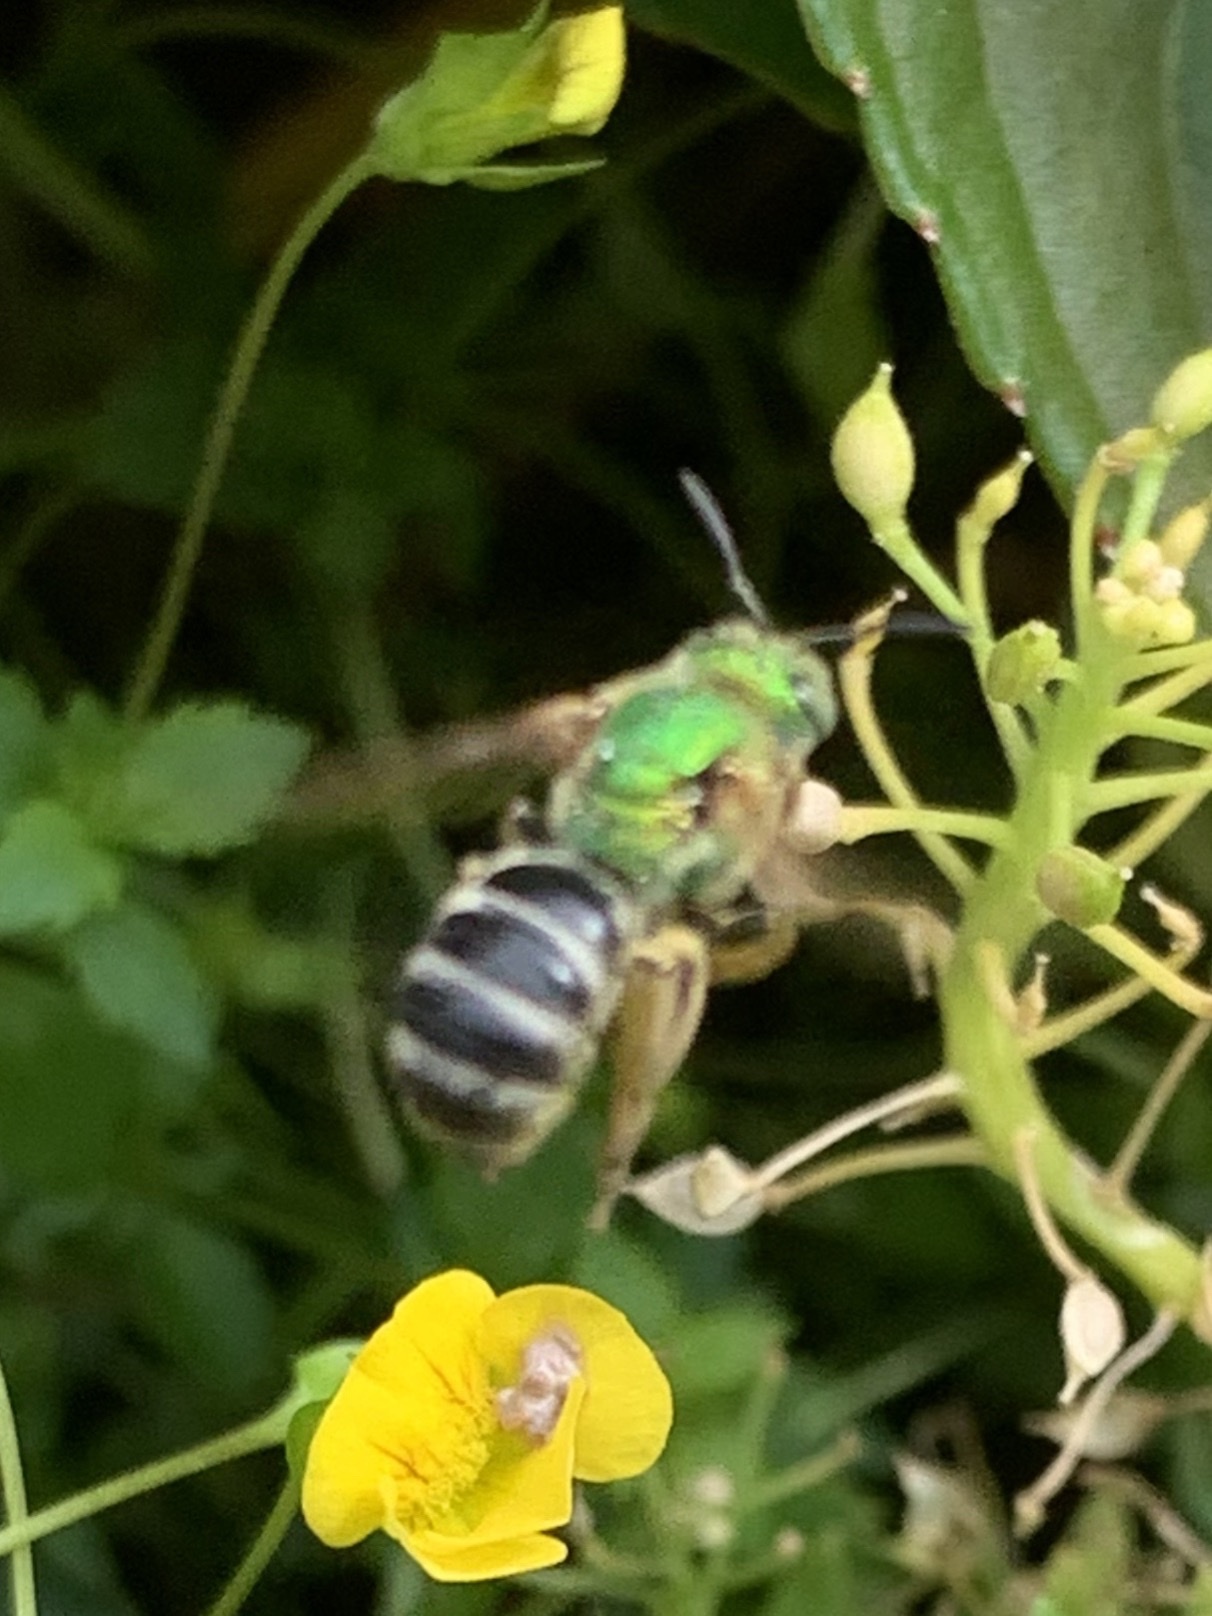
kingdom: Animalia
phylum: Arthropoda
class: Insecta
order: Hymenoptera
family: Halictidae
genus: Agapostemon
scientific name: Agapostemon virescens
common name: Bicolored striped sweat bee
